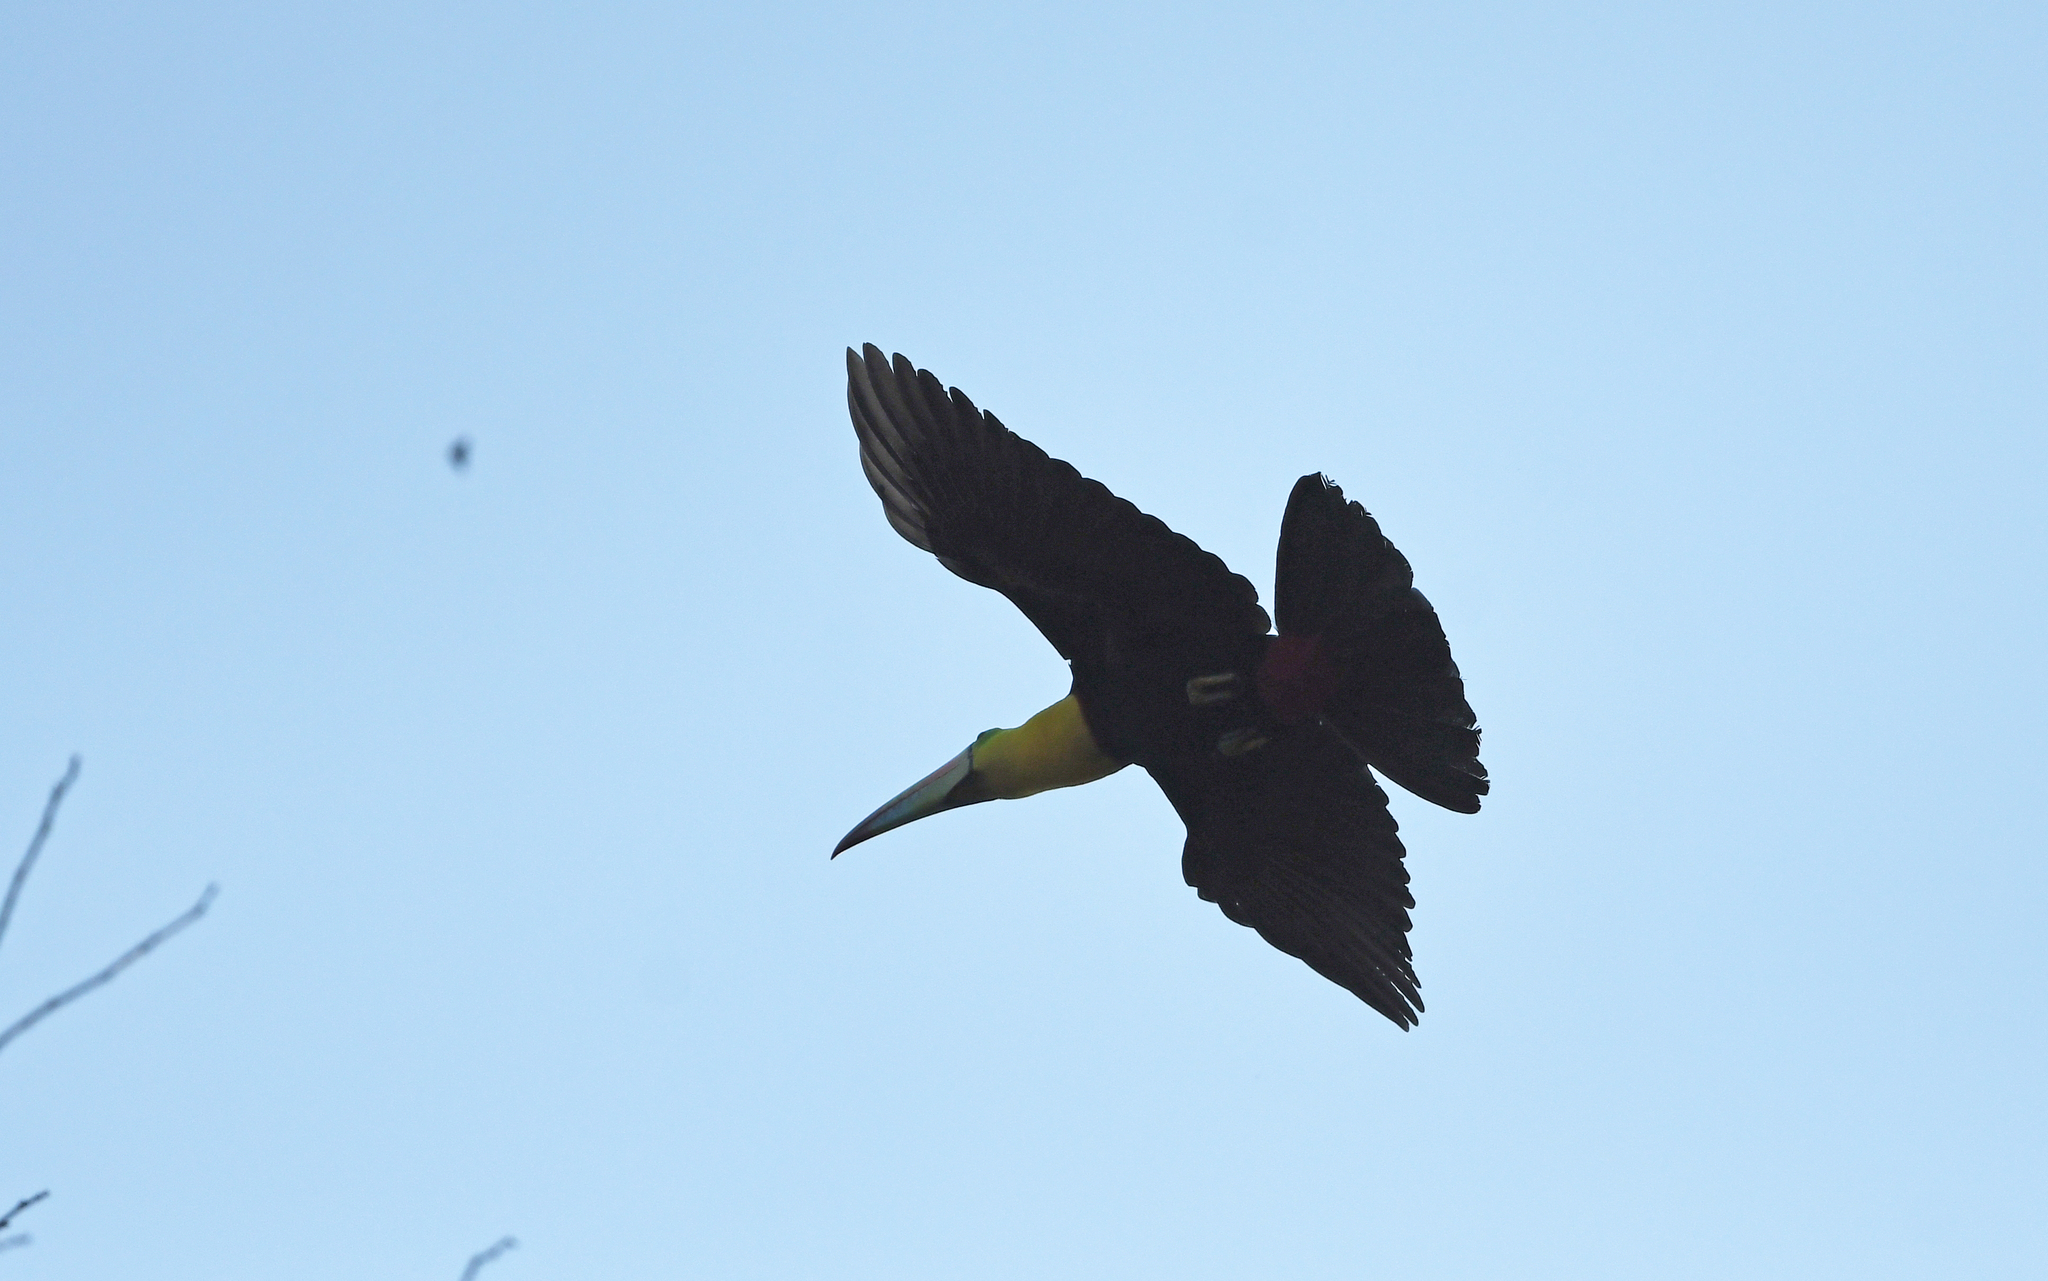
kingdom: Animalia
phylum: Chordata
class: Aves
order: Piciformes
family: Ramphastidae
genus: Ramphastos
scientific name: Ramphastos sulfuratus
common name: Keel-billed toucan
